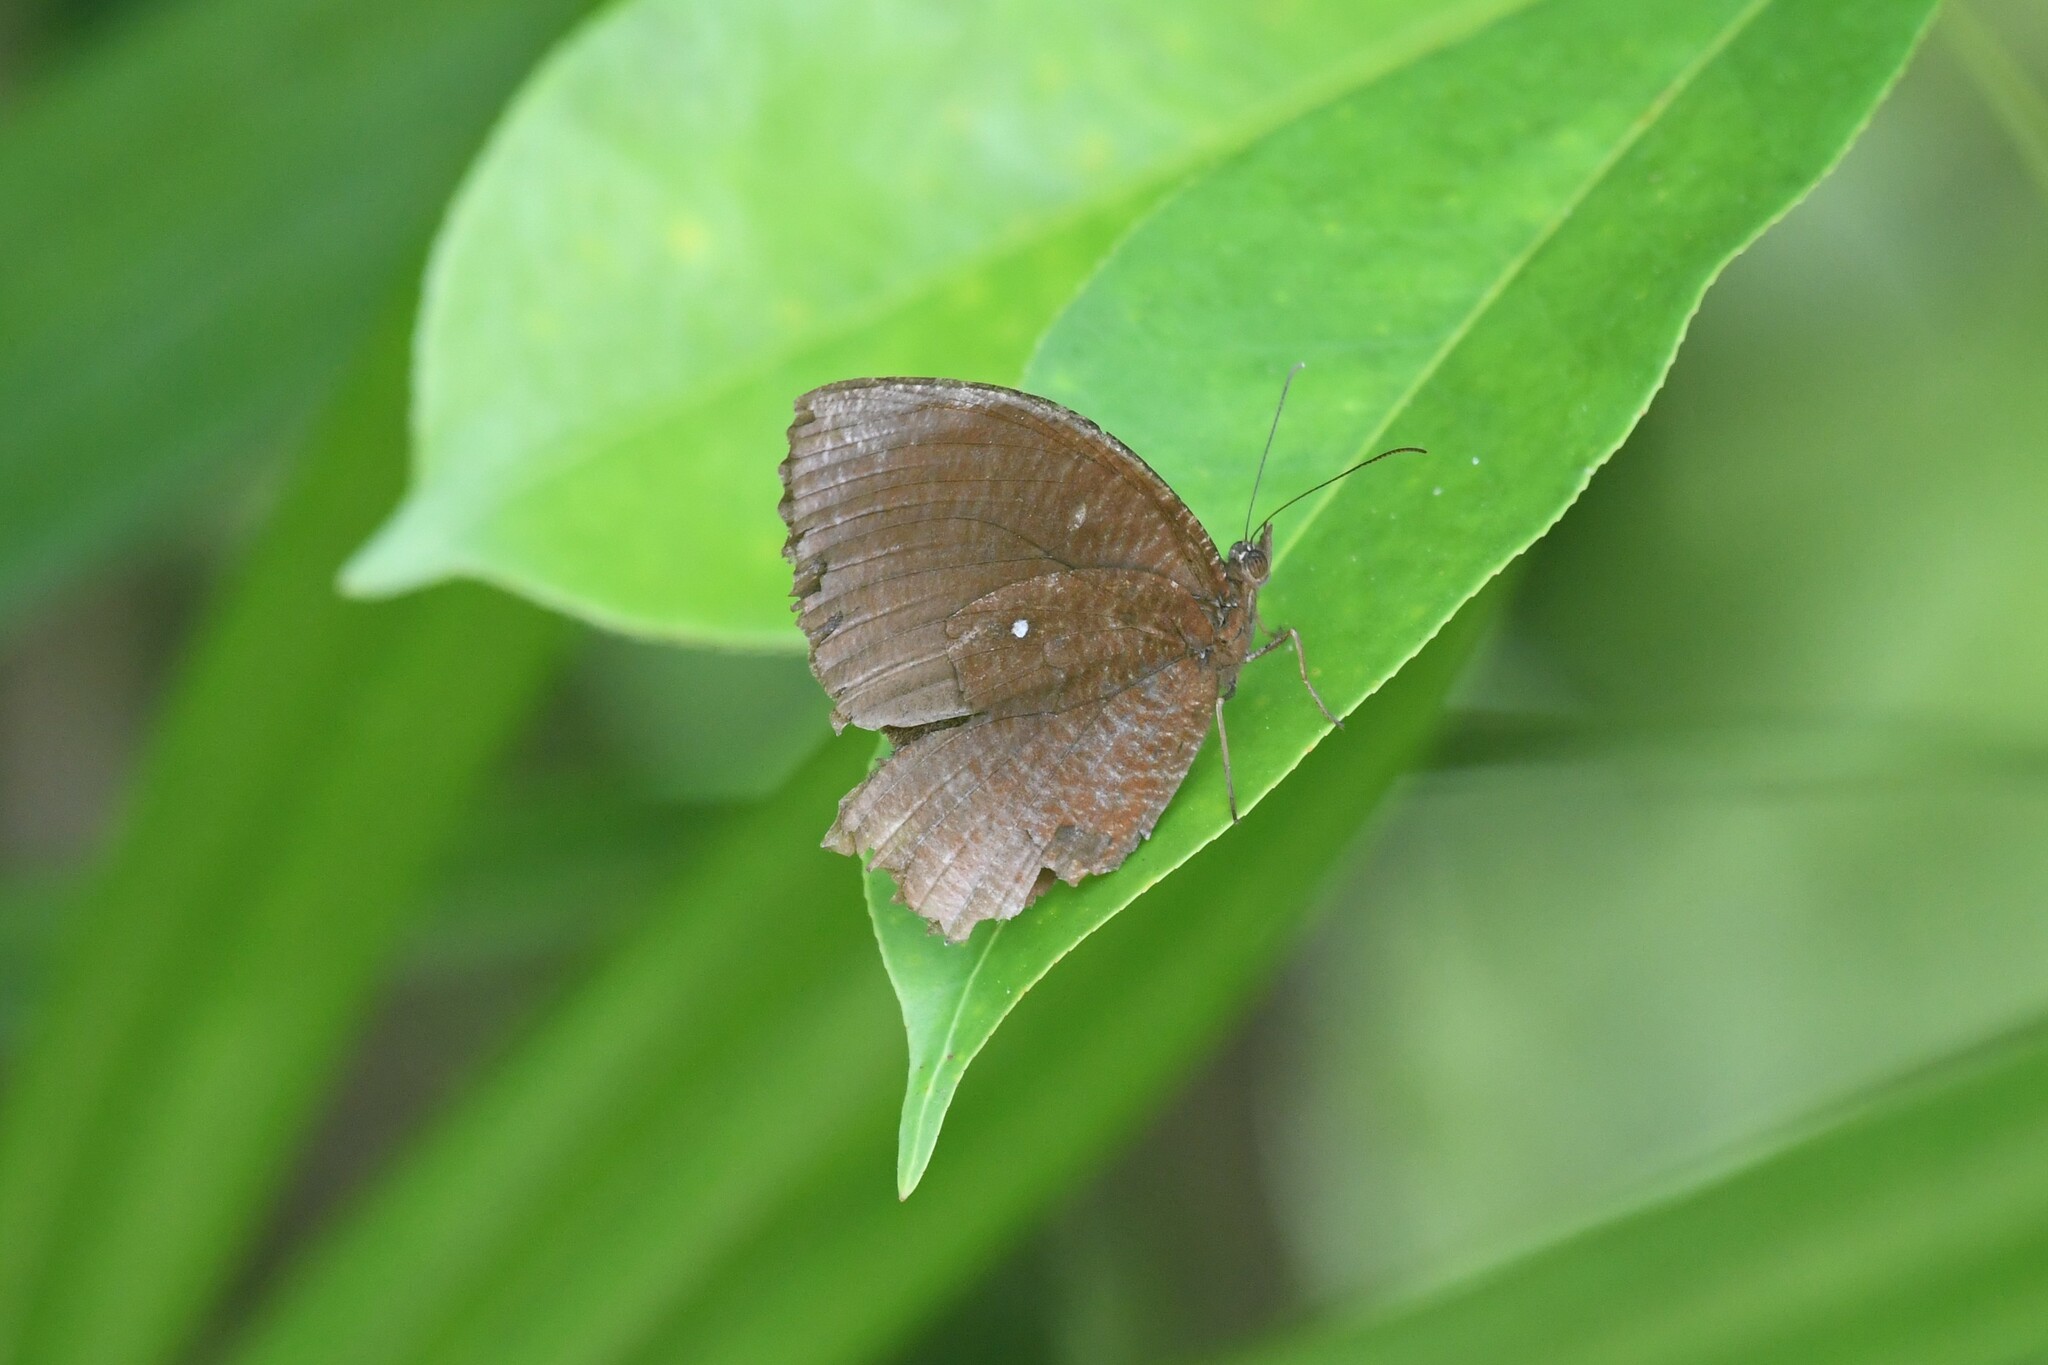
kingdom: Animalia
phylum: Arthropoda
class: Insecta
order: Lepidoptera
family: Nymphalidae
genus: Elymnias
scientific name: Elymnias hypermnestra
